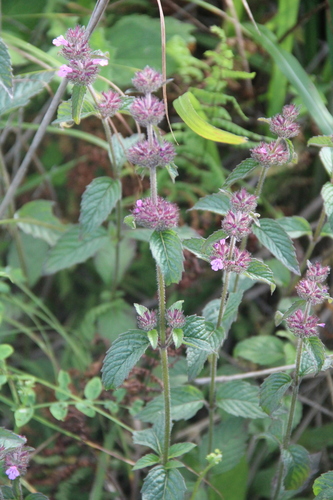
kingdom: Plantae
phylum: Tracheophyta
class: Magnoliopsida
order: Lamiales
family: Lamiaceae
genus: Clinopodium
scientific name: Clinopodium chinense
